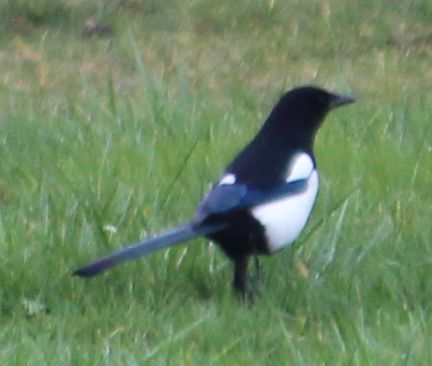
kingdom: Animalia
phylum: Chordata
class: Aves
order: Passeriformes
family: Corvidae
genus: Pica
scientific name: Pica pica
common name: Eurasian magpie
